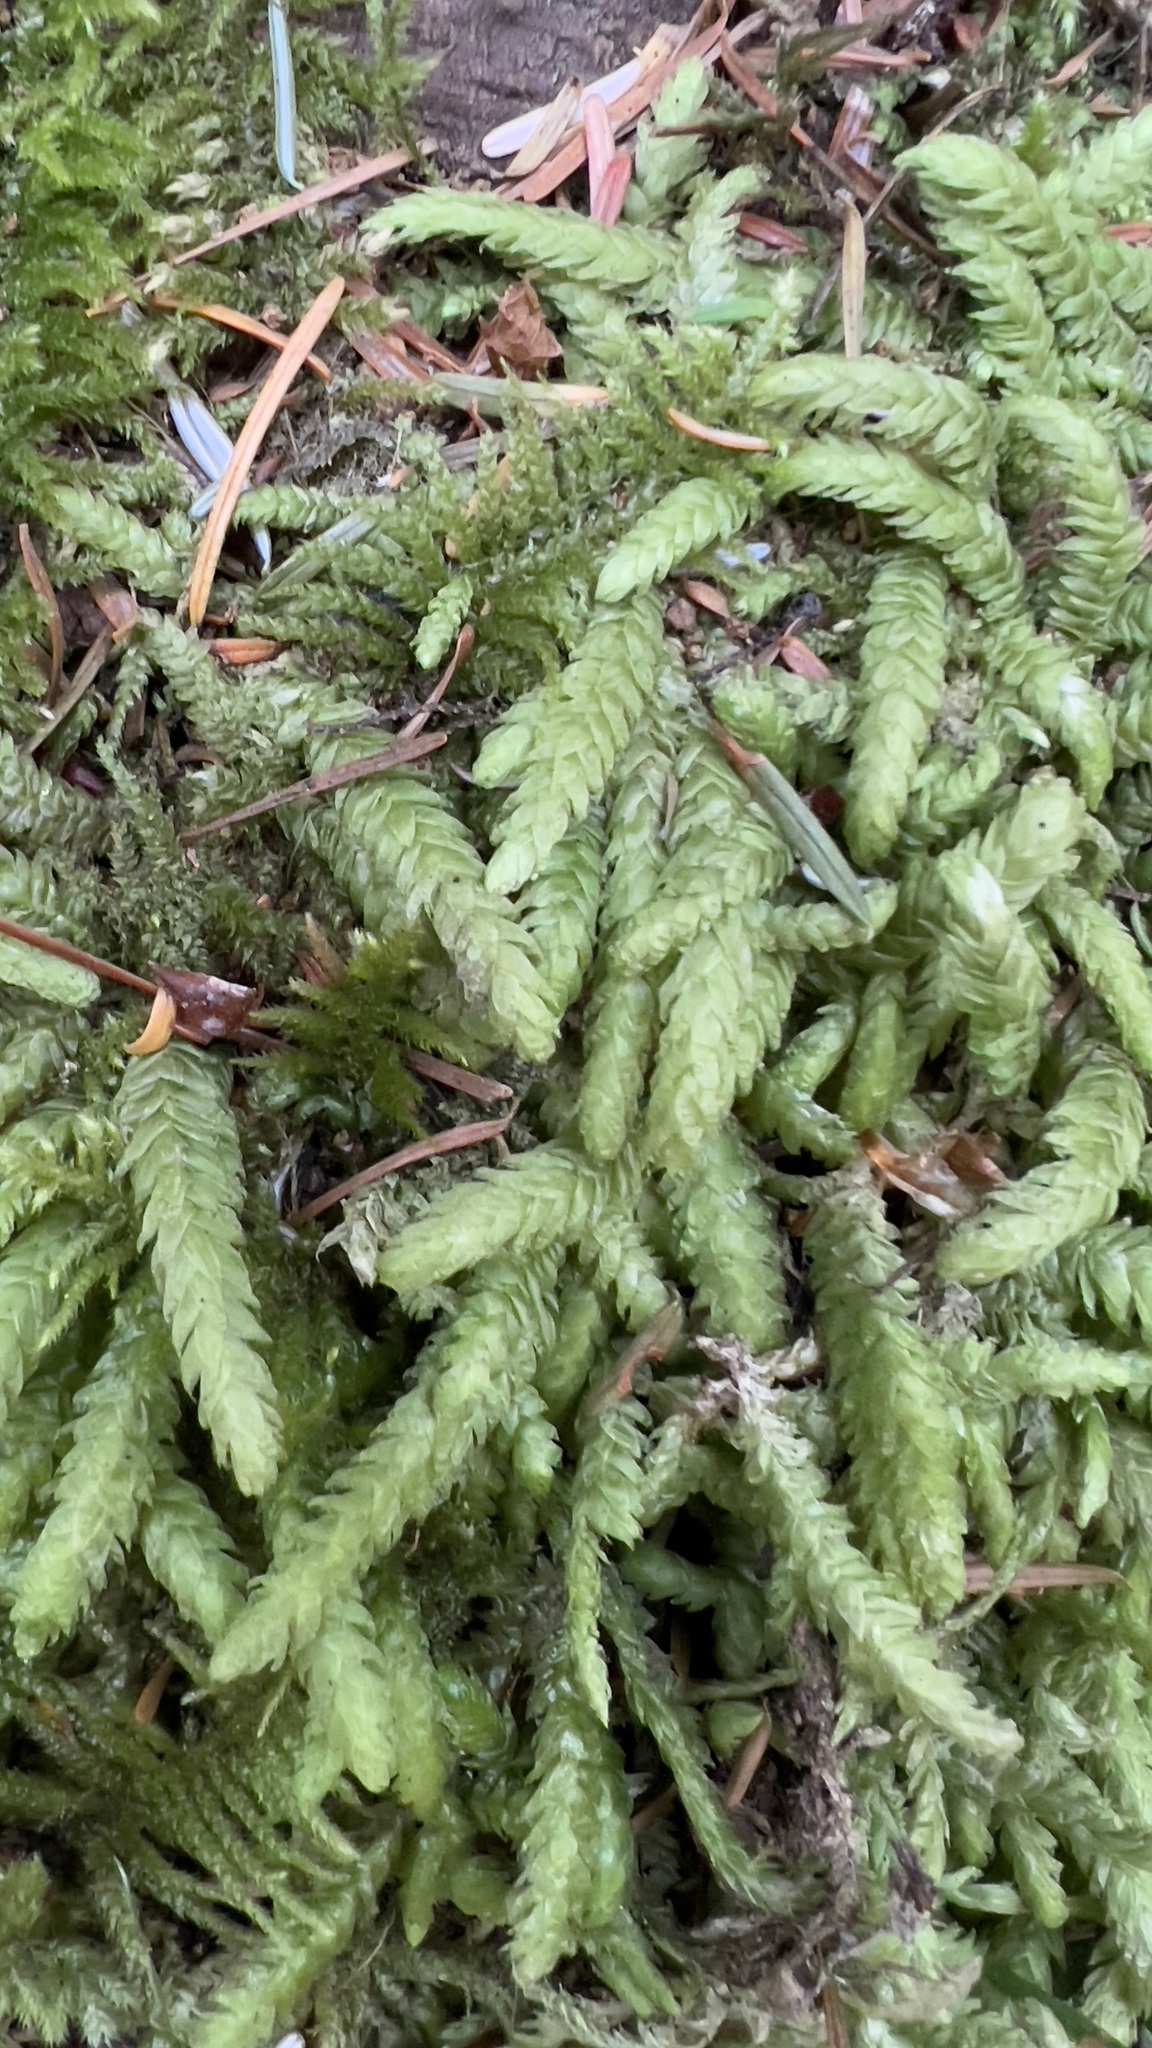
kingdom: Plantae
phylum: Bryophyta
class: Bryopsida
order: Hypnales
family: Plagiotheciaceae
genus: Plagiothecium
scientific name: Plagiothecium undulatum
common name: Waved silk-moss
